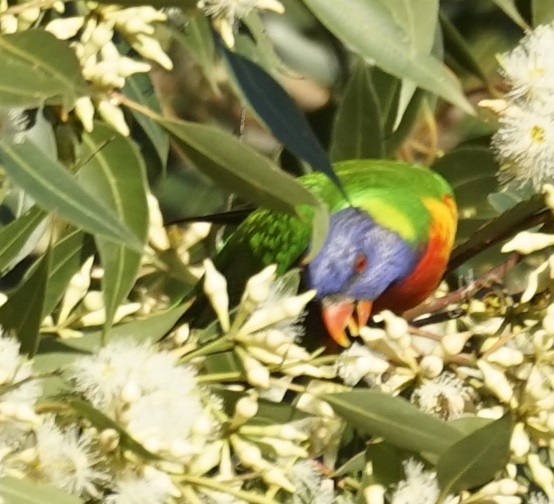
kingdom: Animalia
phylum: Chordata
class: Aves
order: Psittaciformes
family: Psittacidae
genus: Trichoglossus
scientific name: Trichoglossus haematodus
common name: Coconut lorikeet
